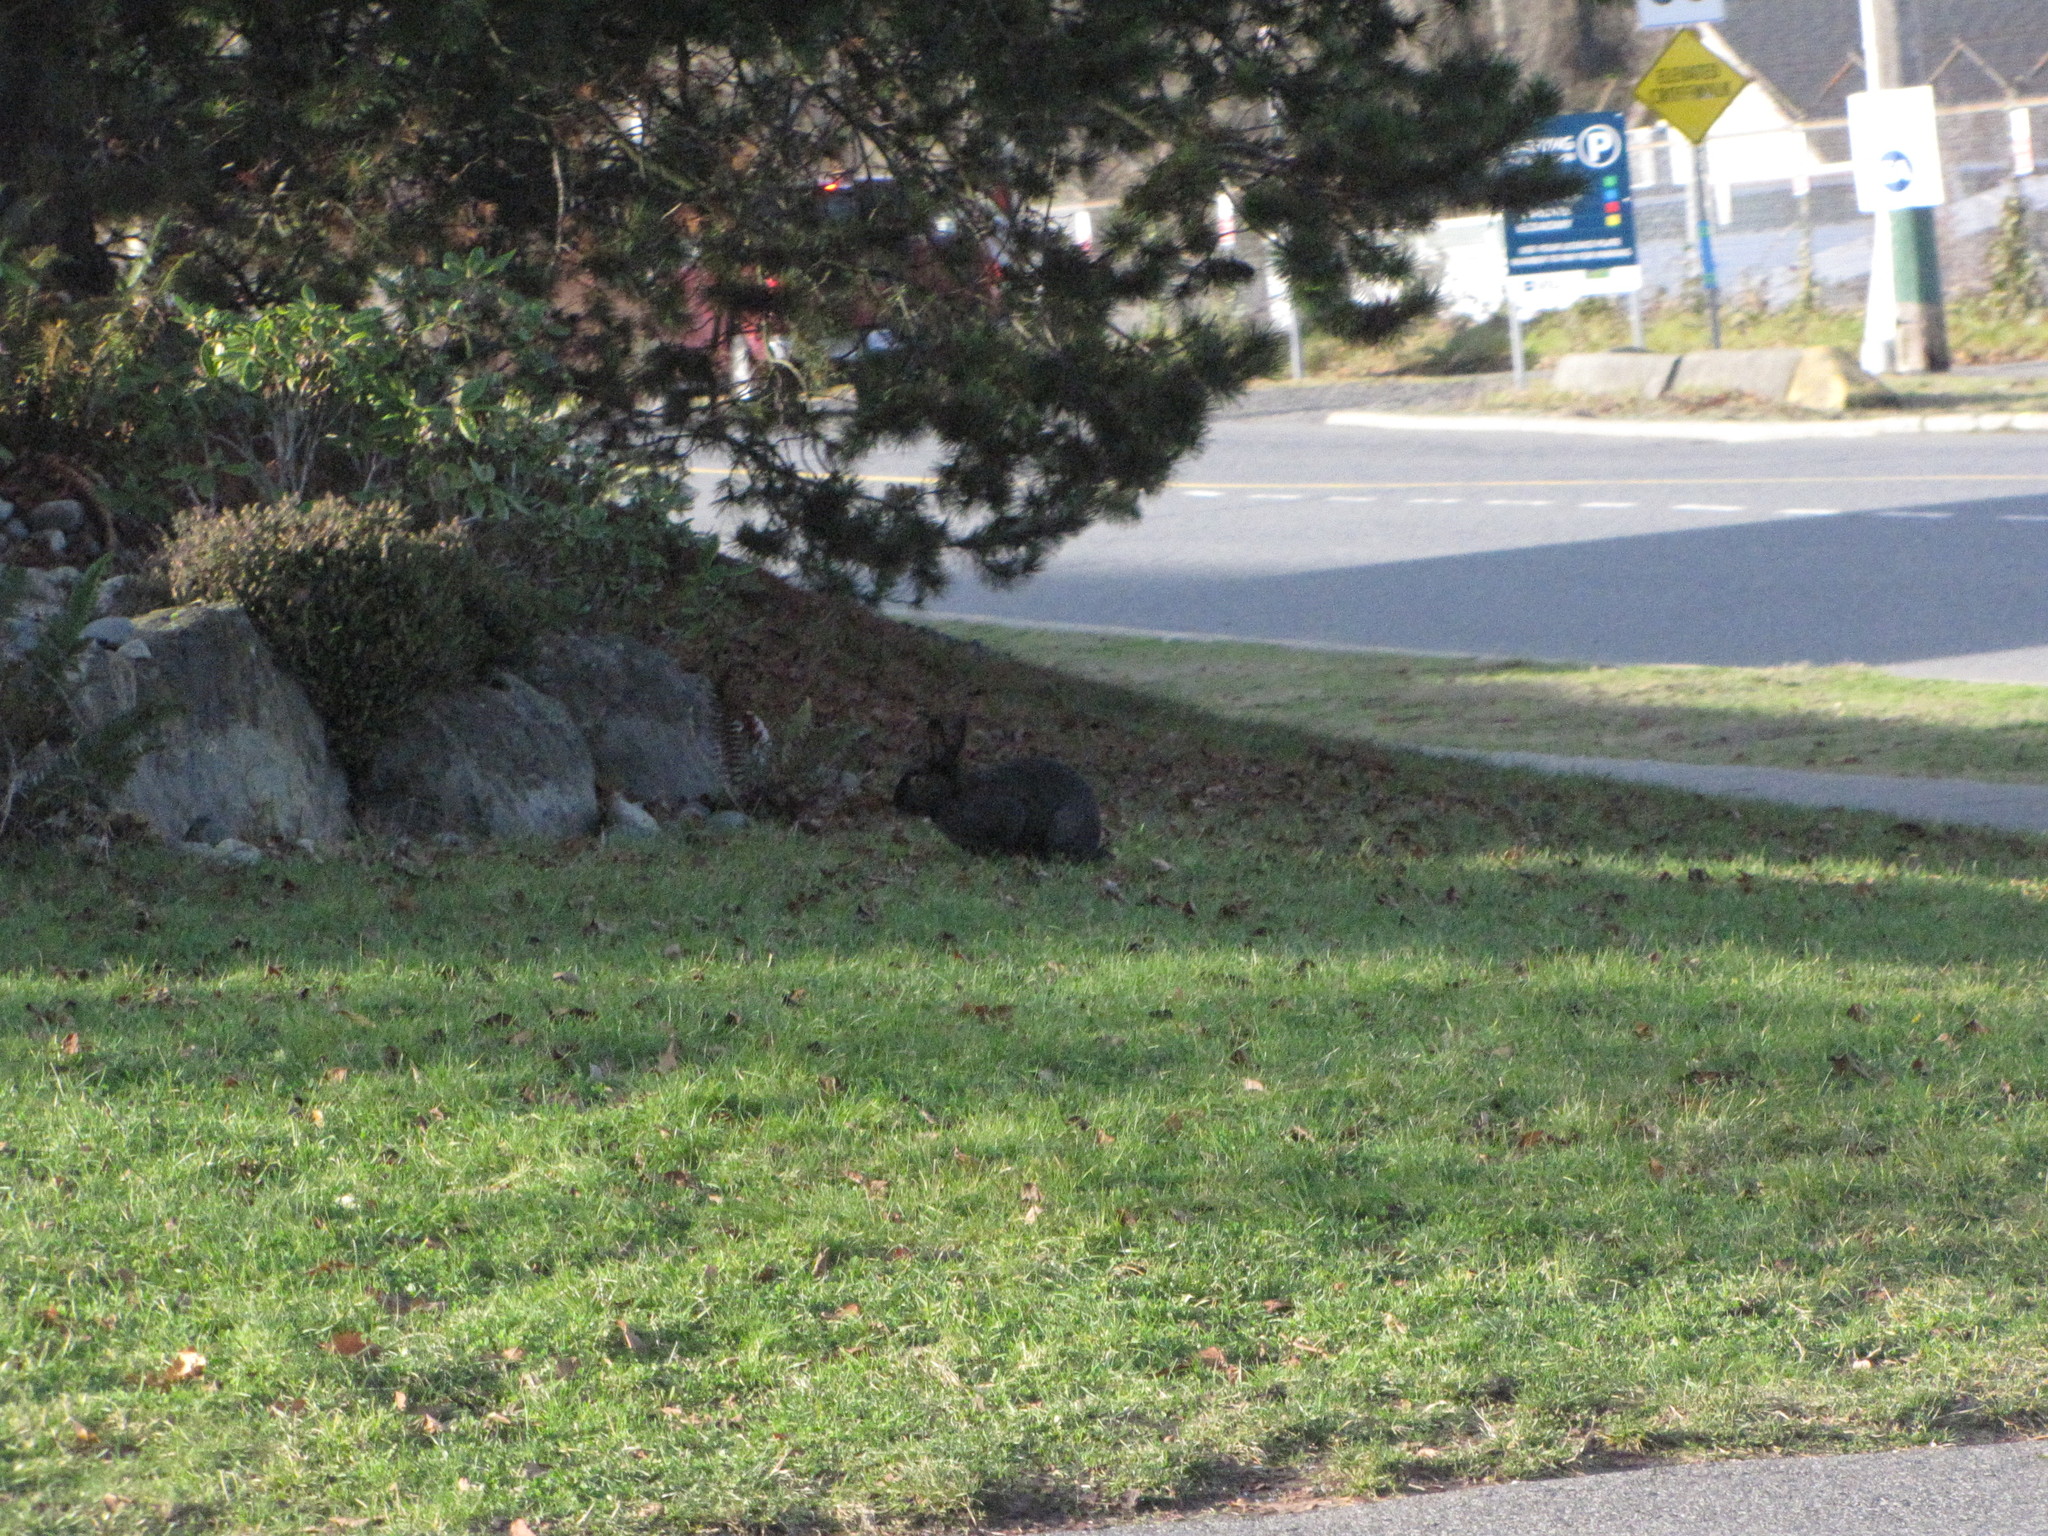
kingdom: Animalia
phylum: Chordata
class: Mammalia
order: Lagomorpha
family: Leporidae
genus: Oryctolagus
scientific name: Oryctolagus cuniculus
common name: European rabbit
